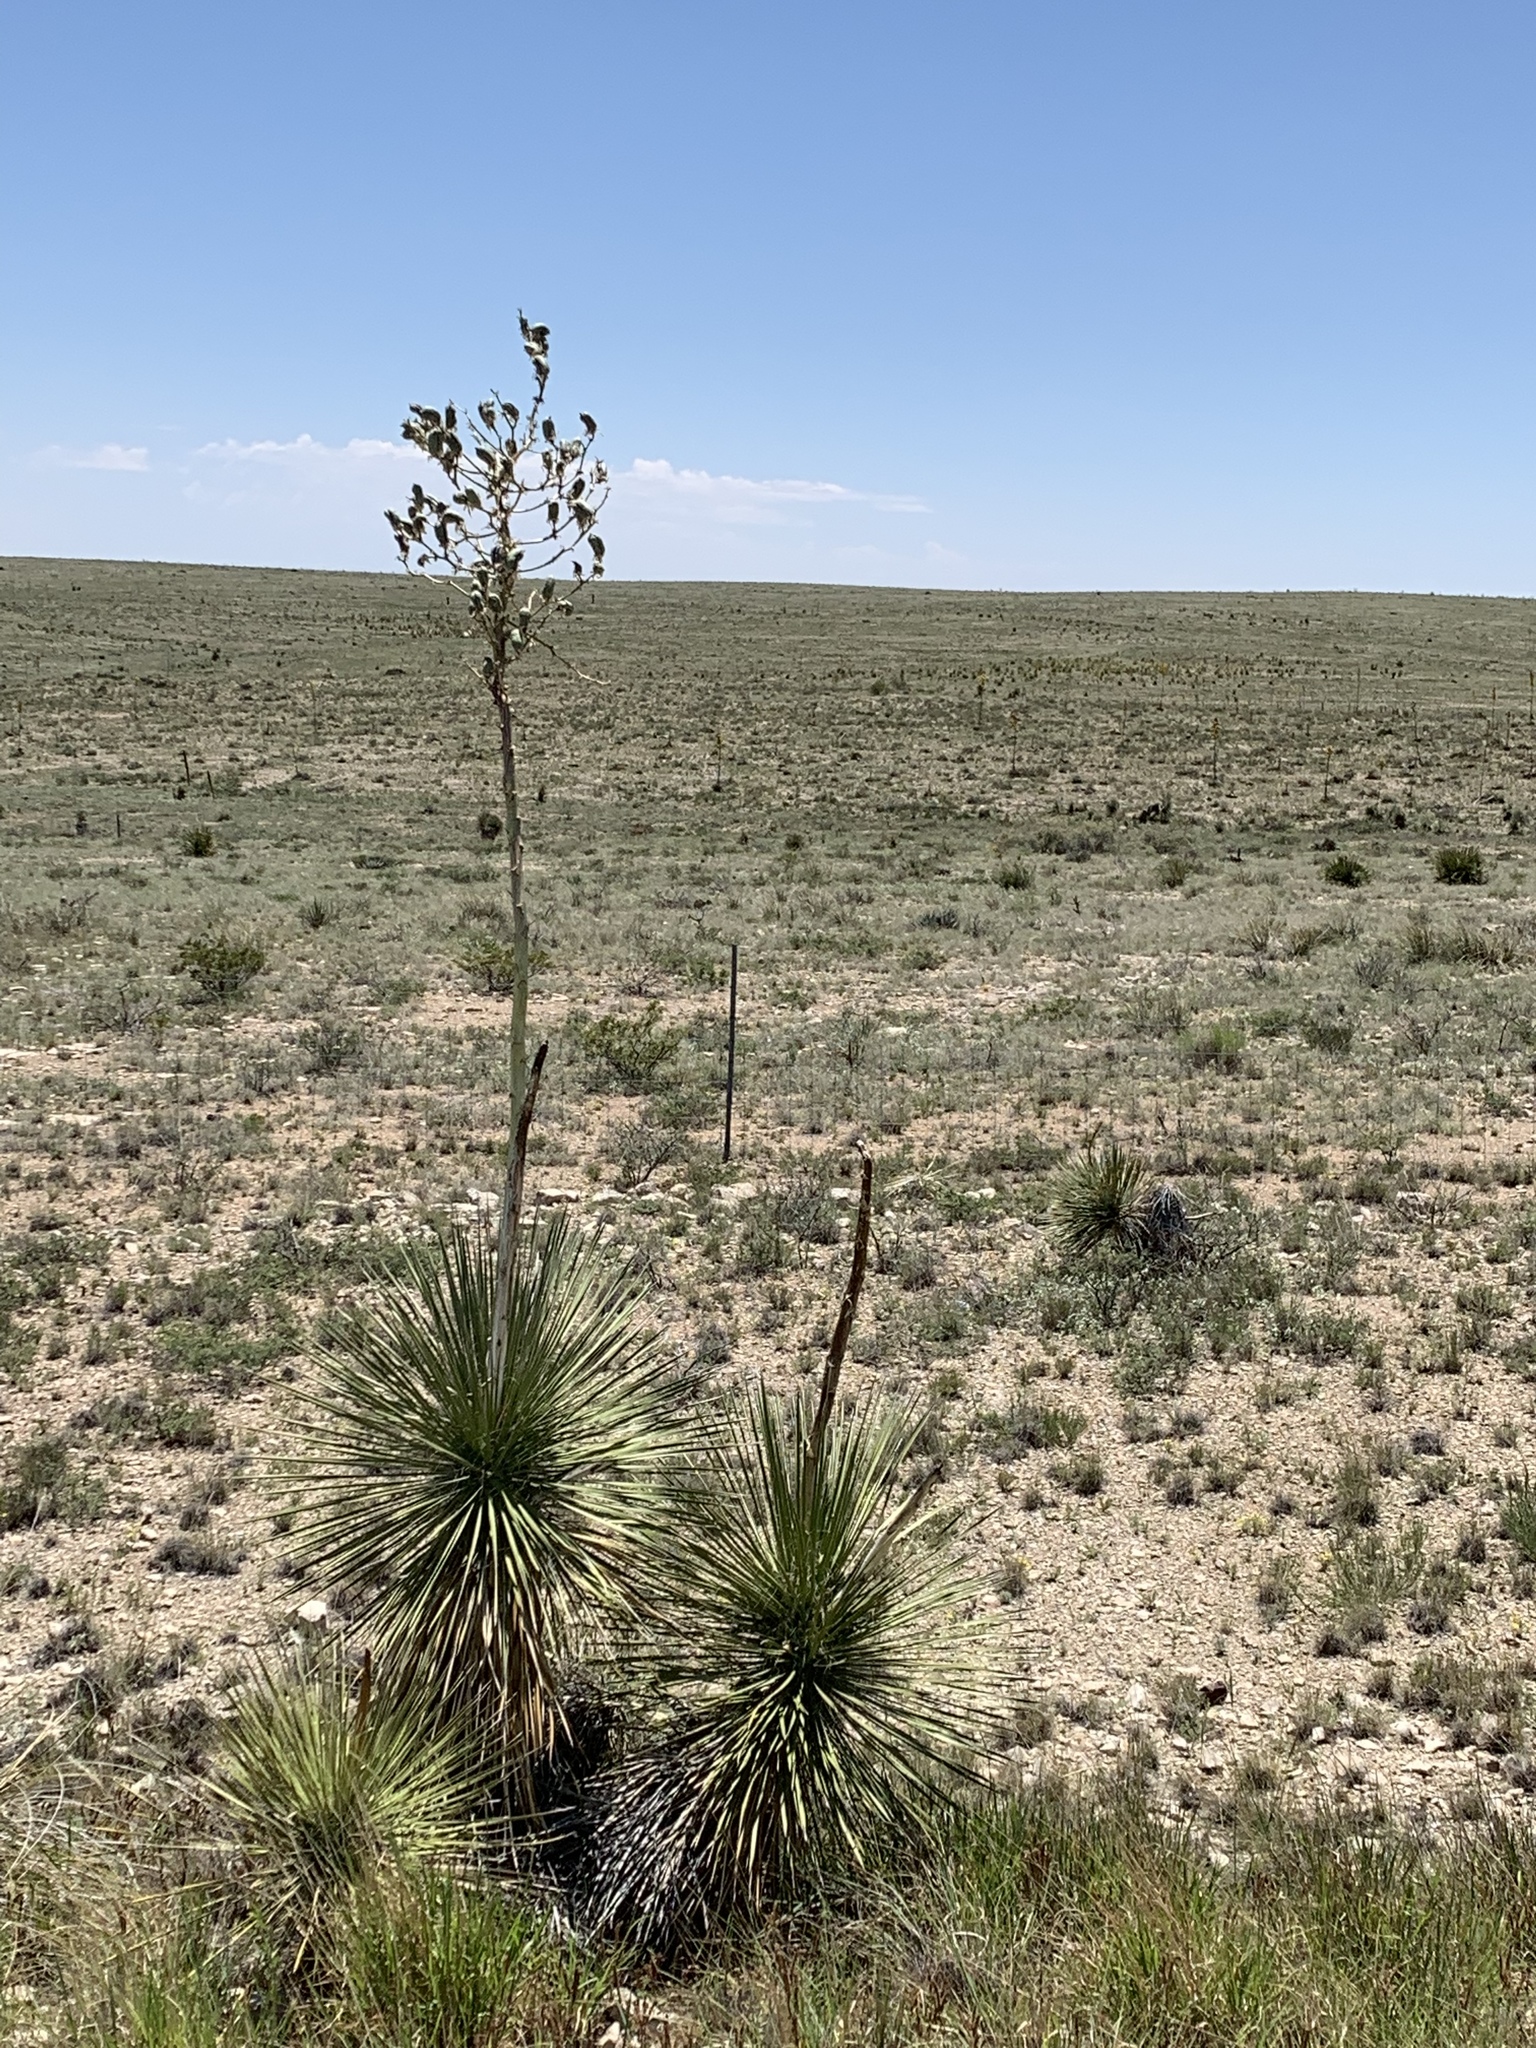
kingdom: Plantae
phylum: Tracheophyta
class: Liliopsida
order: Asparagales
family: Asparagaceae
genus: Yucca
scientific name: Yucca elata
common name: Palmella
